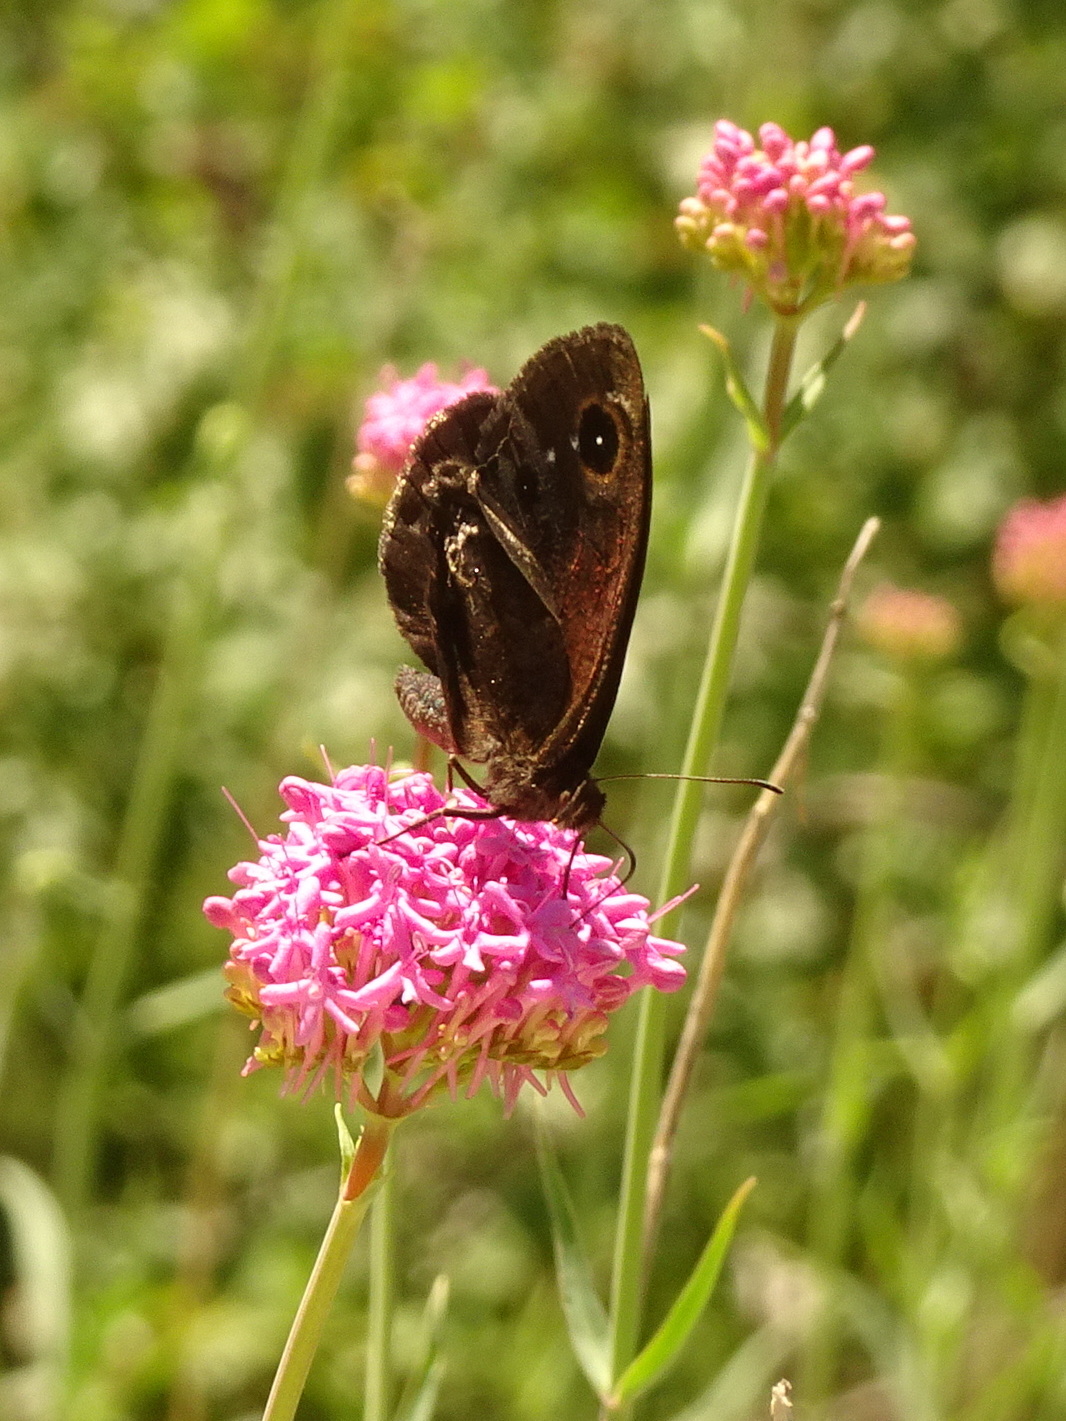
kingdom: Animalia
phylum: Arthropoda
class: Insecta
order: Lepidoptera
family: Nymphalidae
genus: Satyrus
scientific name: Satyrus ferula
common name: Great sooty satyr
